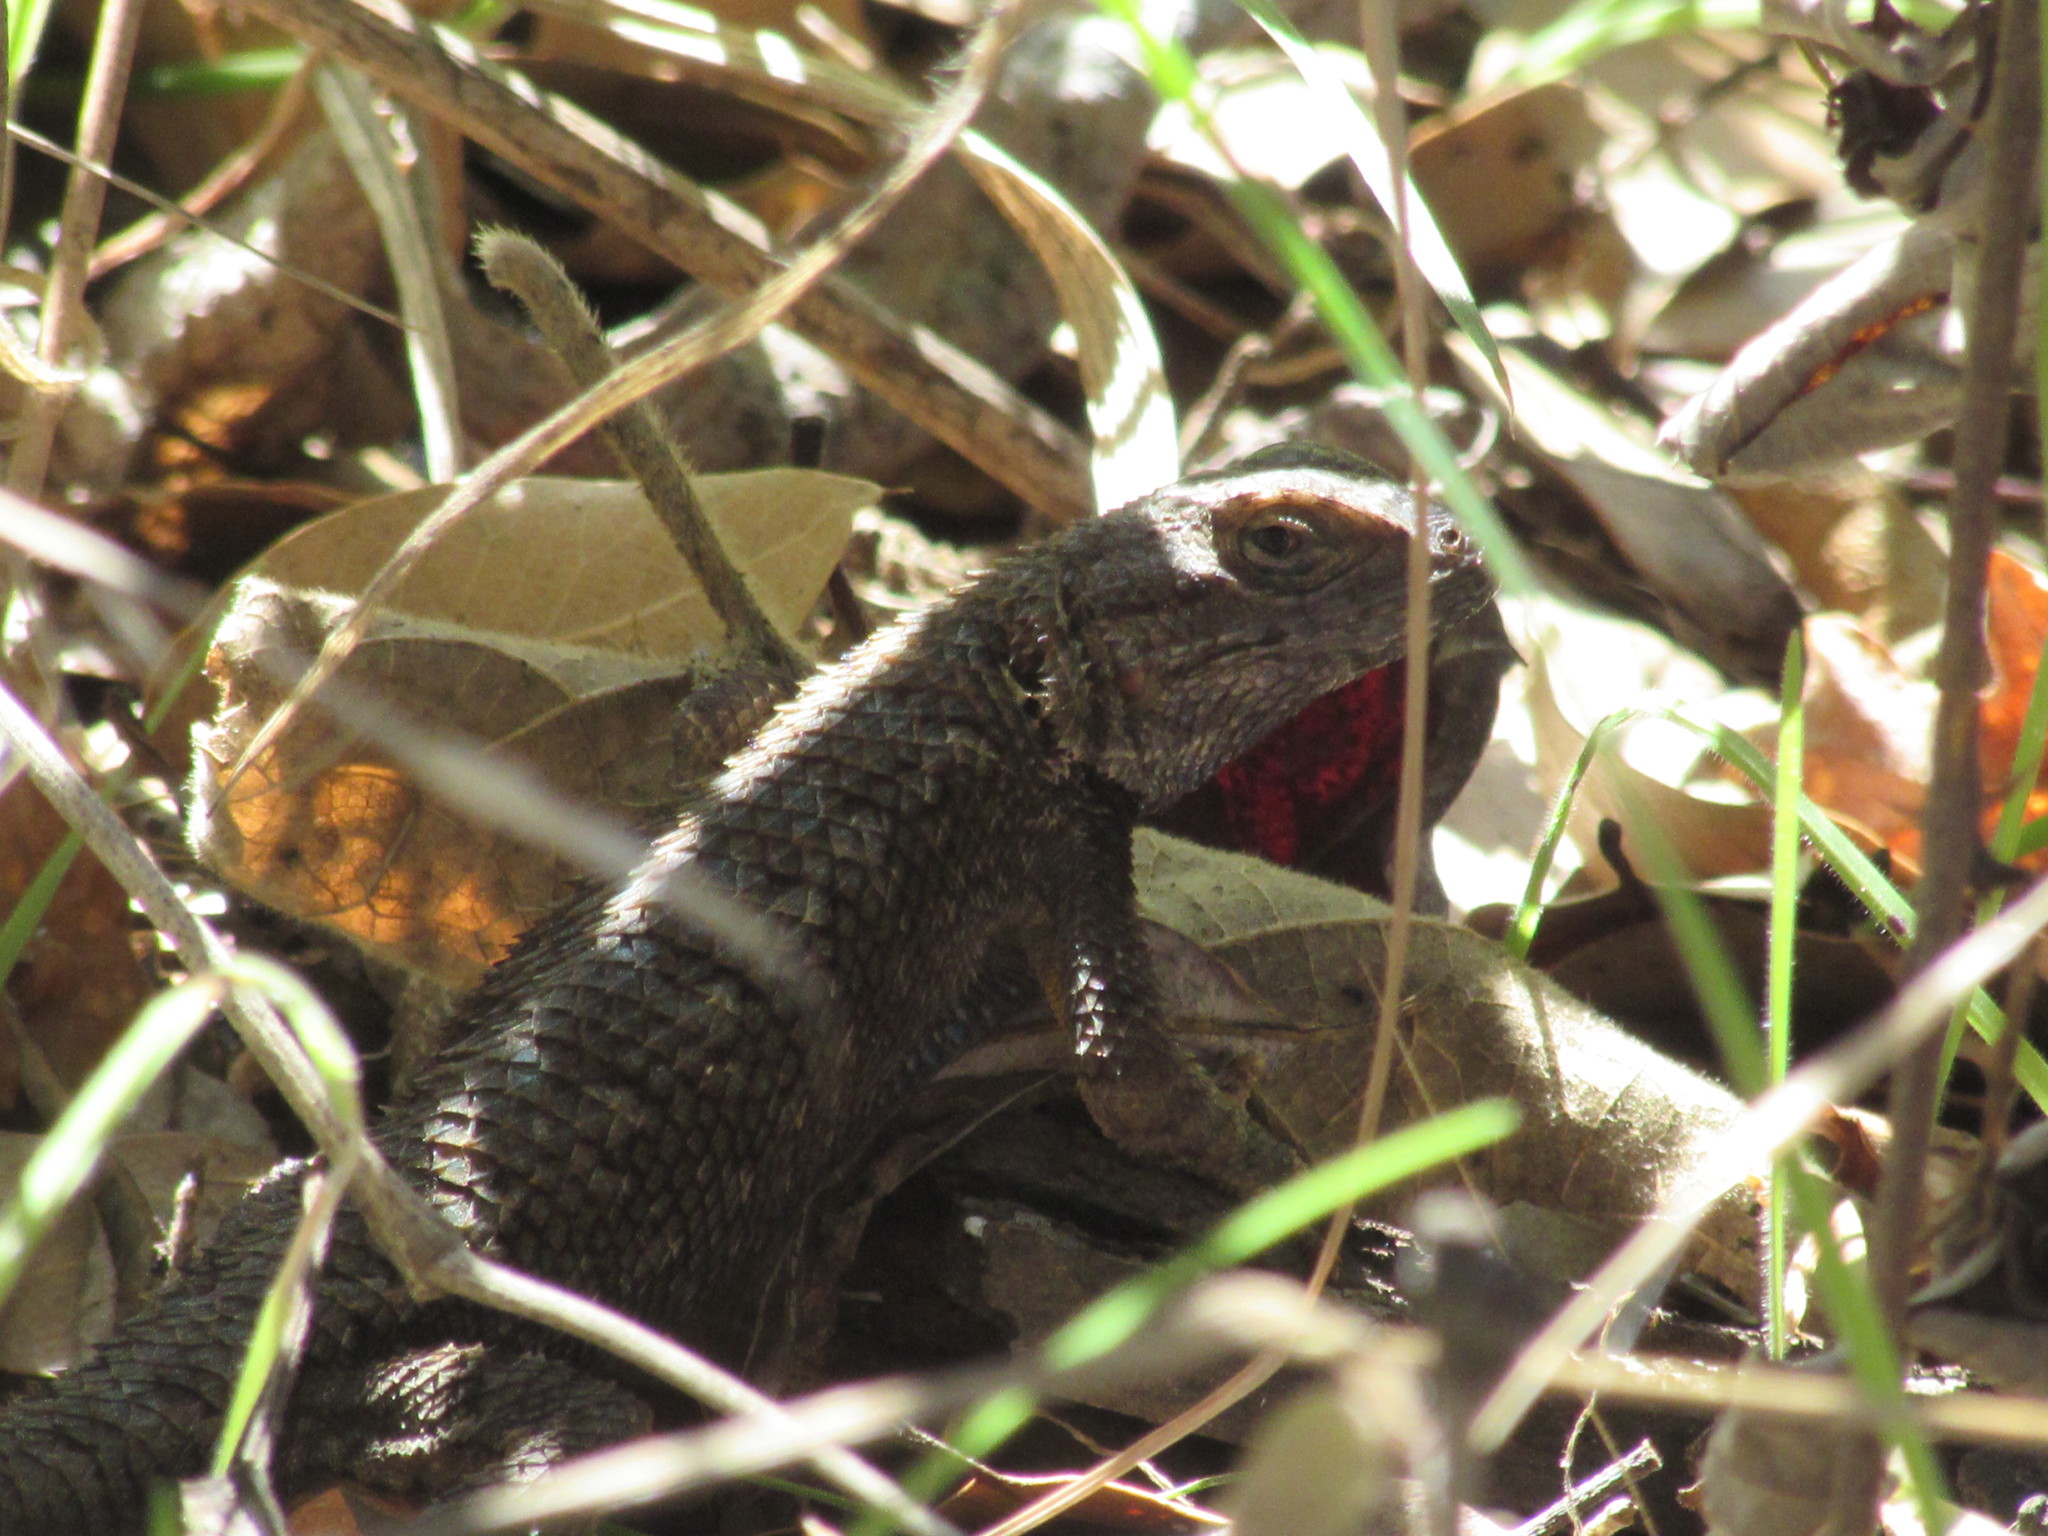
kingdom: Animalia
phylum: Chordata
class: Squamata
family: Phrynosomatidae
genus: Sceloporus
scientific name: Sceloporus occidentalis
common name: Western fence lizard
